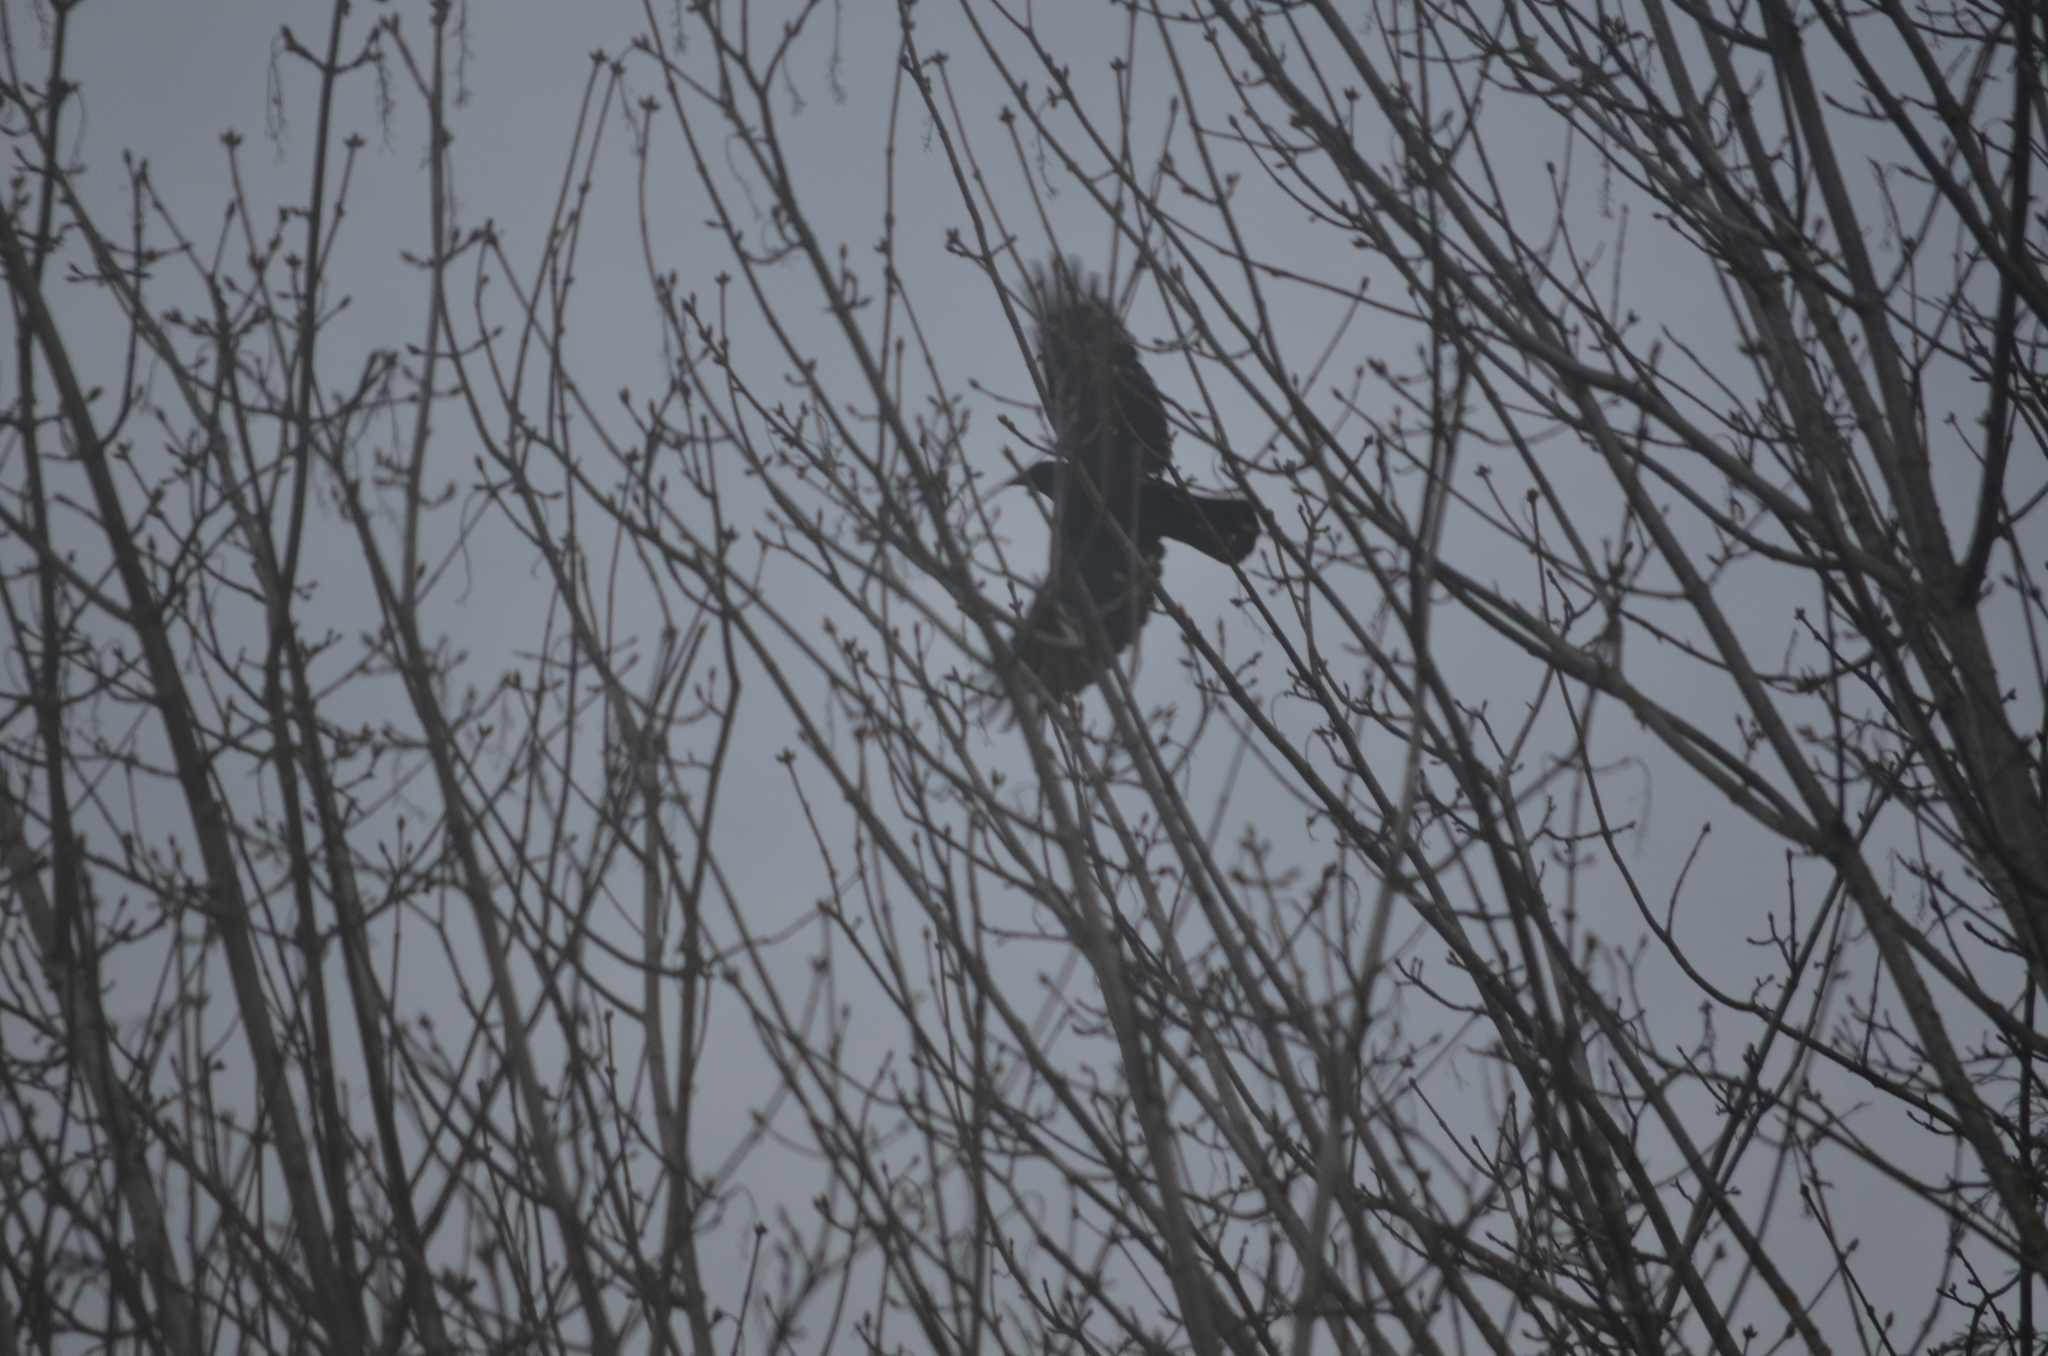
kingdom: Animalia
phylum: Chordata
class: Aves
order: Passeriformes
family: Corvidae
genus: Corvus
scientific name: Corvus brachyrhynchos
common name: American crow
